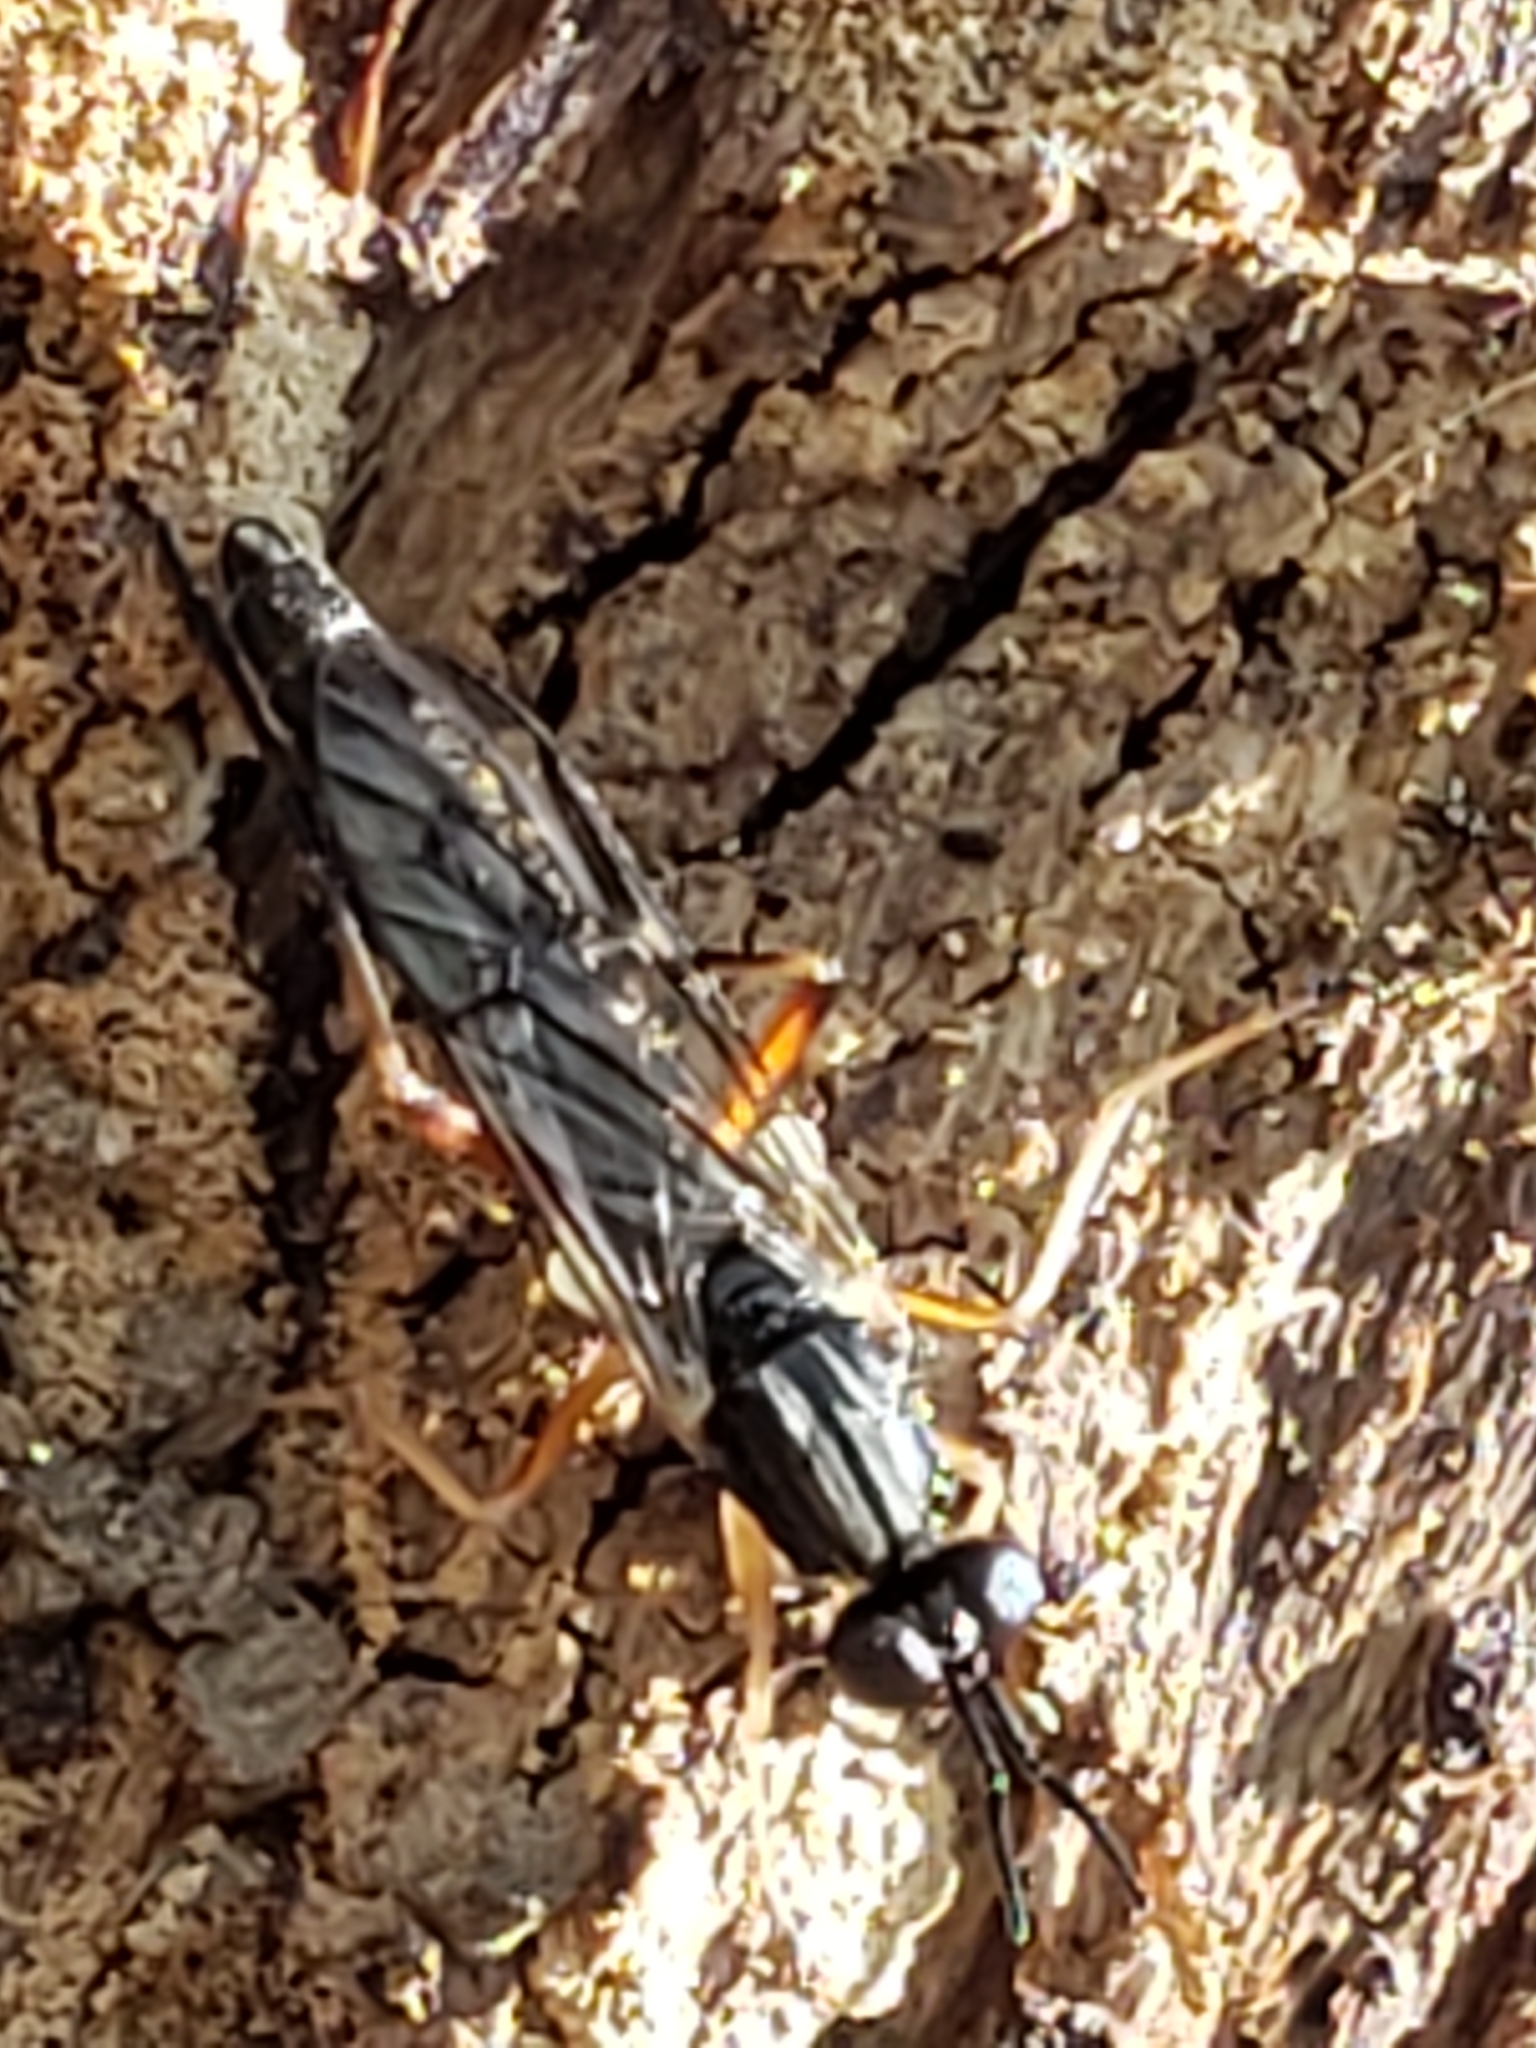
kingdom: Animalia
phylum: Arthropoda
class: Insecta
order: Diptera
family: Xylophagidae
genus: Xylophagus
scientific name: Xylophagus reflectens
